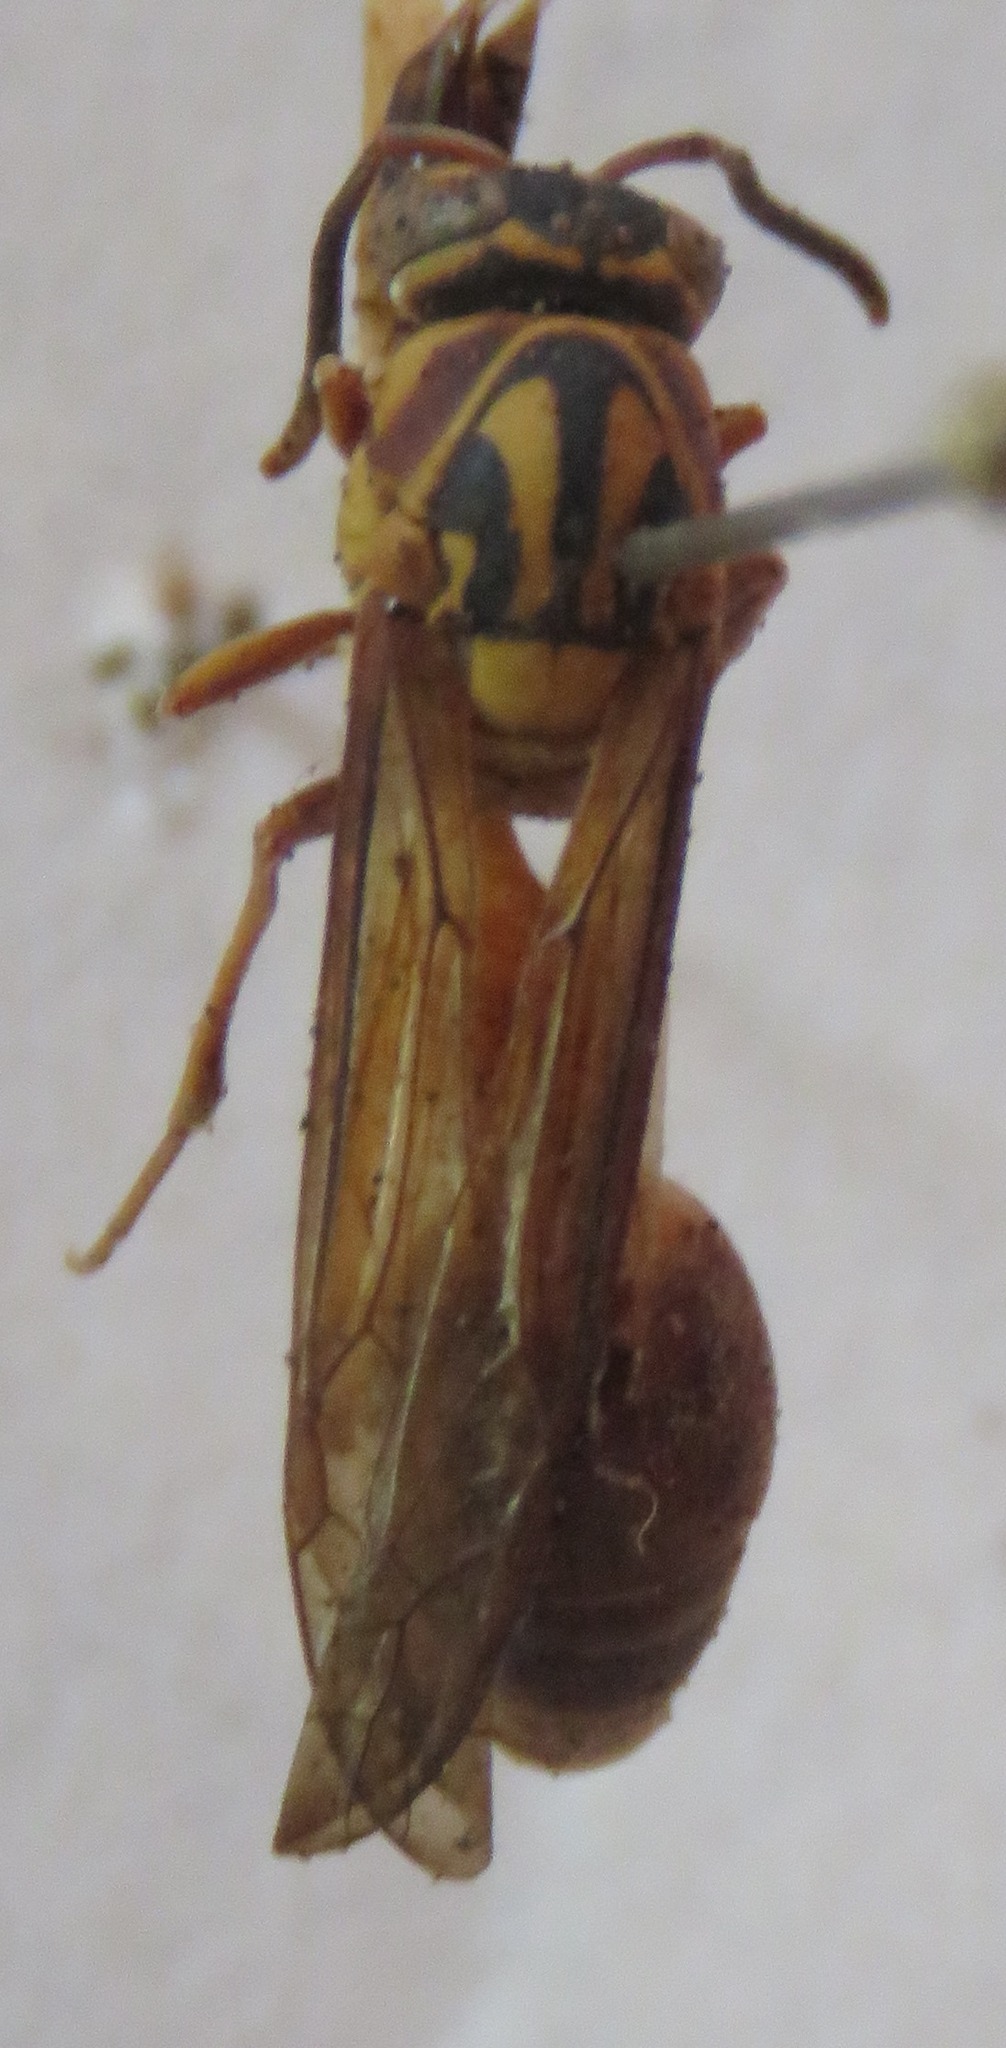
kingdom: Animalia
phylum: Arthropoda
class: Insecta
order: Hymenoptera
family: Eumenidae
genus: Pachymenes
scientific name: Pachymenes ghilianii
